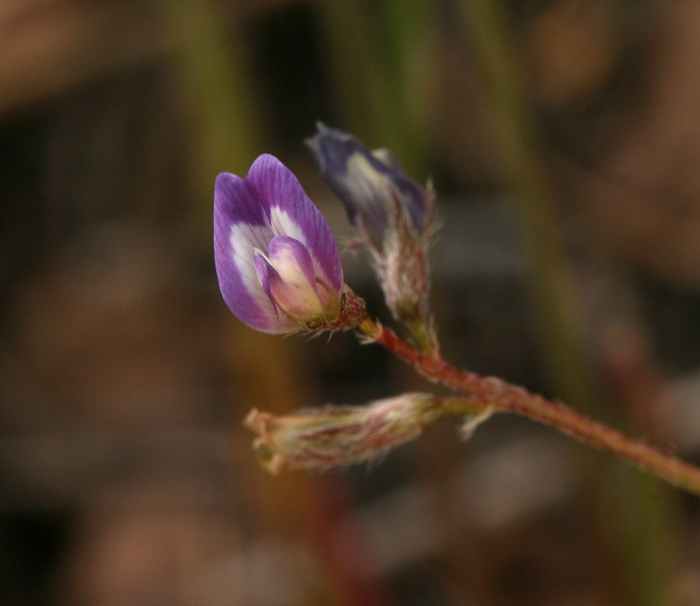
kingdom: Plantae
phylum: Tracheophyta
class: Magnoliopsida
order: Fabales
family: Fabaceae
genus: Astragalus
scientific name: Astragalus nuttallianus
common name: Smallflowered milkvetch
